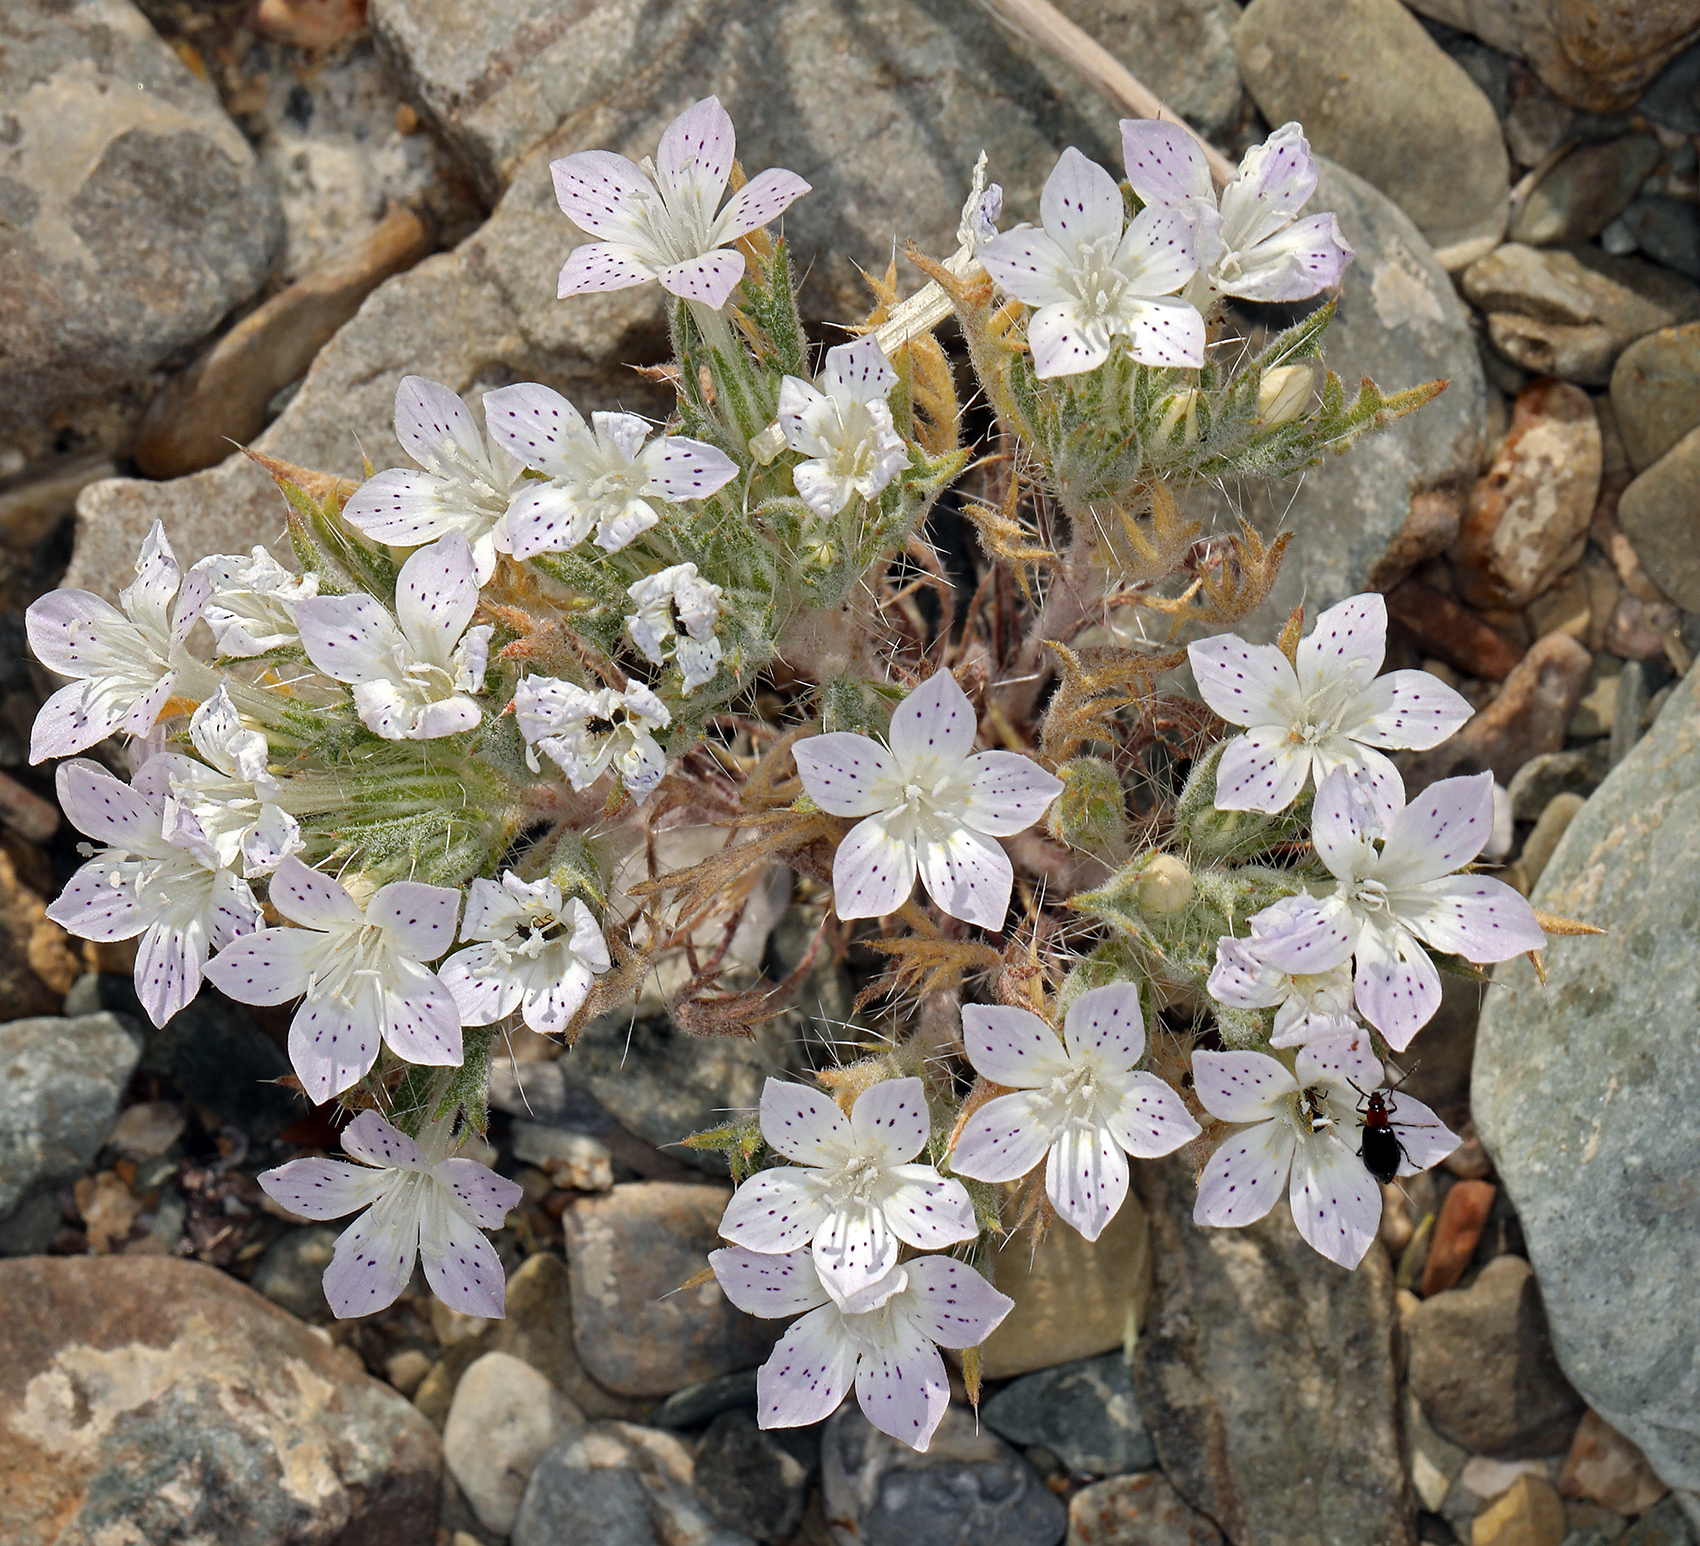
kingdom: Plantae
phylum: Tracheophyta
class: Magnoliopsida
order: Ericales
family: Polemoniaceae
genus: Langloisia
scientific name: Langloisia setosissima
